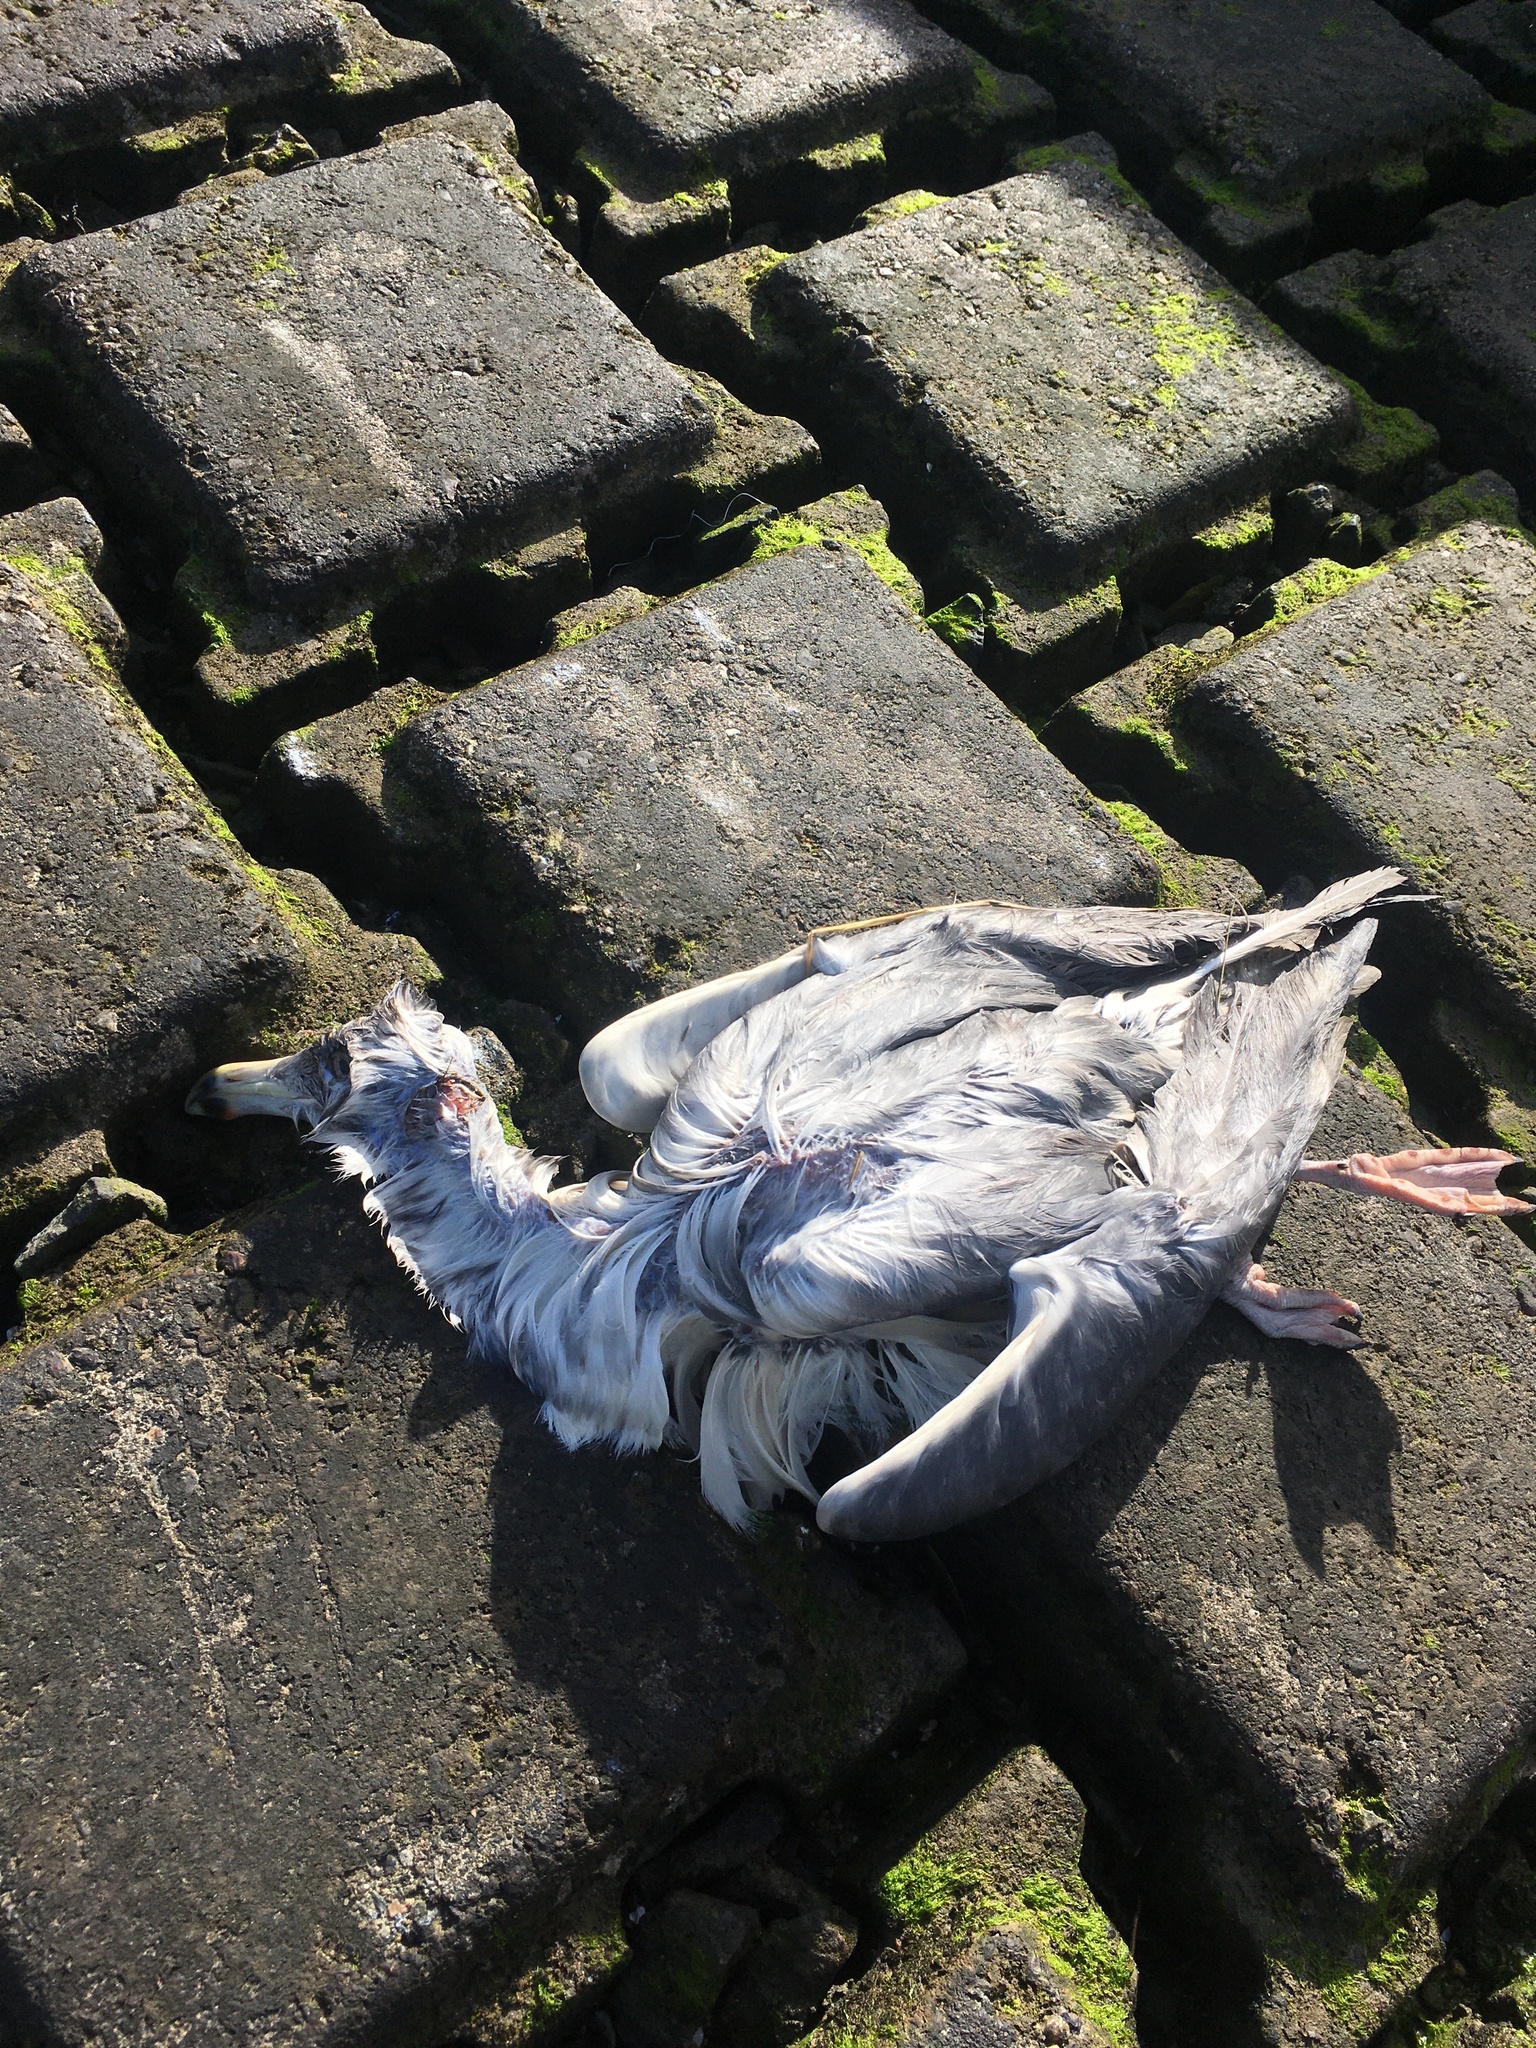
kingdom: Animalia
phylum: Chordata
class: Aves
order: Charadriiformes
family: Laridae
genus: Larus
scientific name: Larus argentatus
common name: Herring gull
